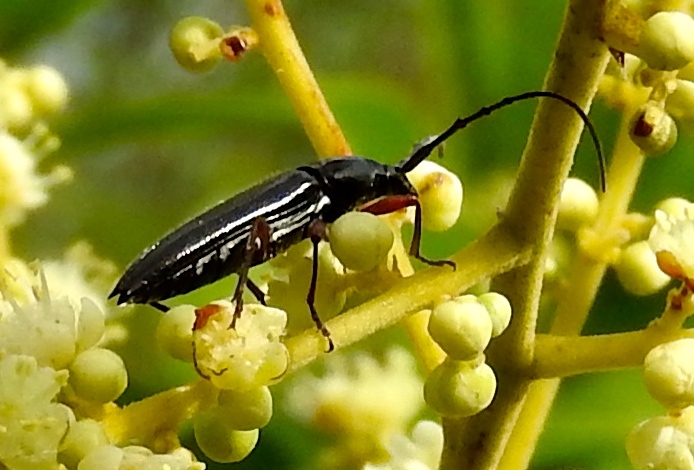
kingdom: Animalia
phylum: Arthropoda
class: Insecta
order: Coleoptera
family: Cerambycidae
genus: Stenosphenus
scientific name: Stenosphenus
